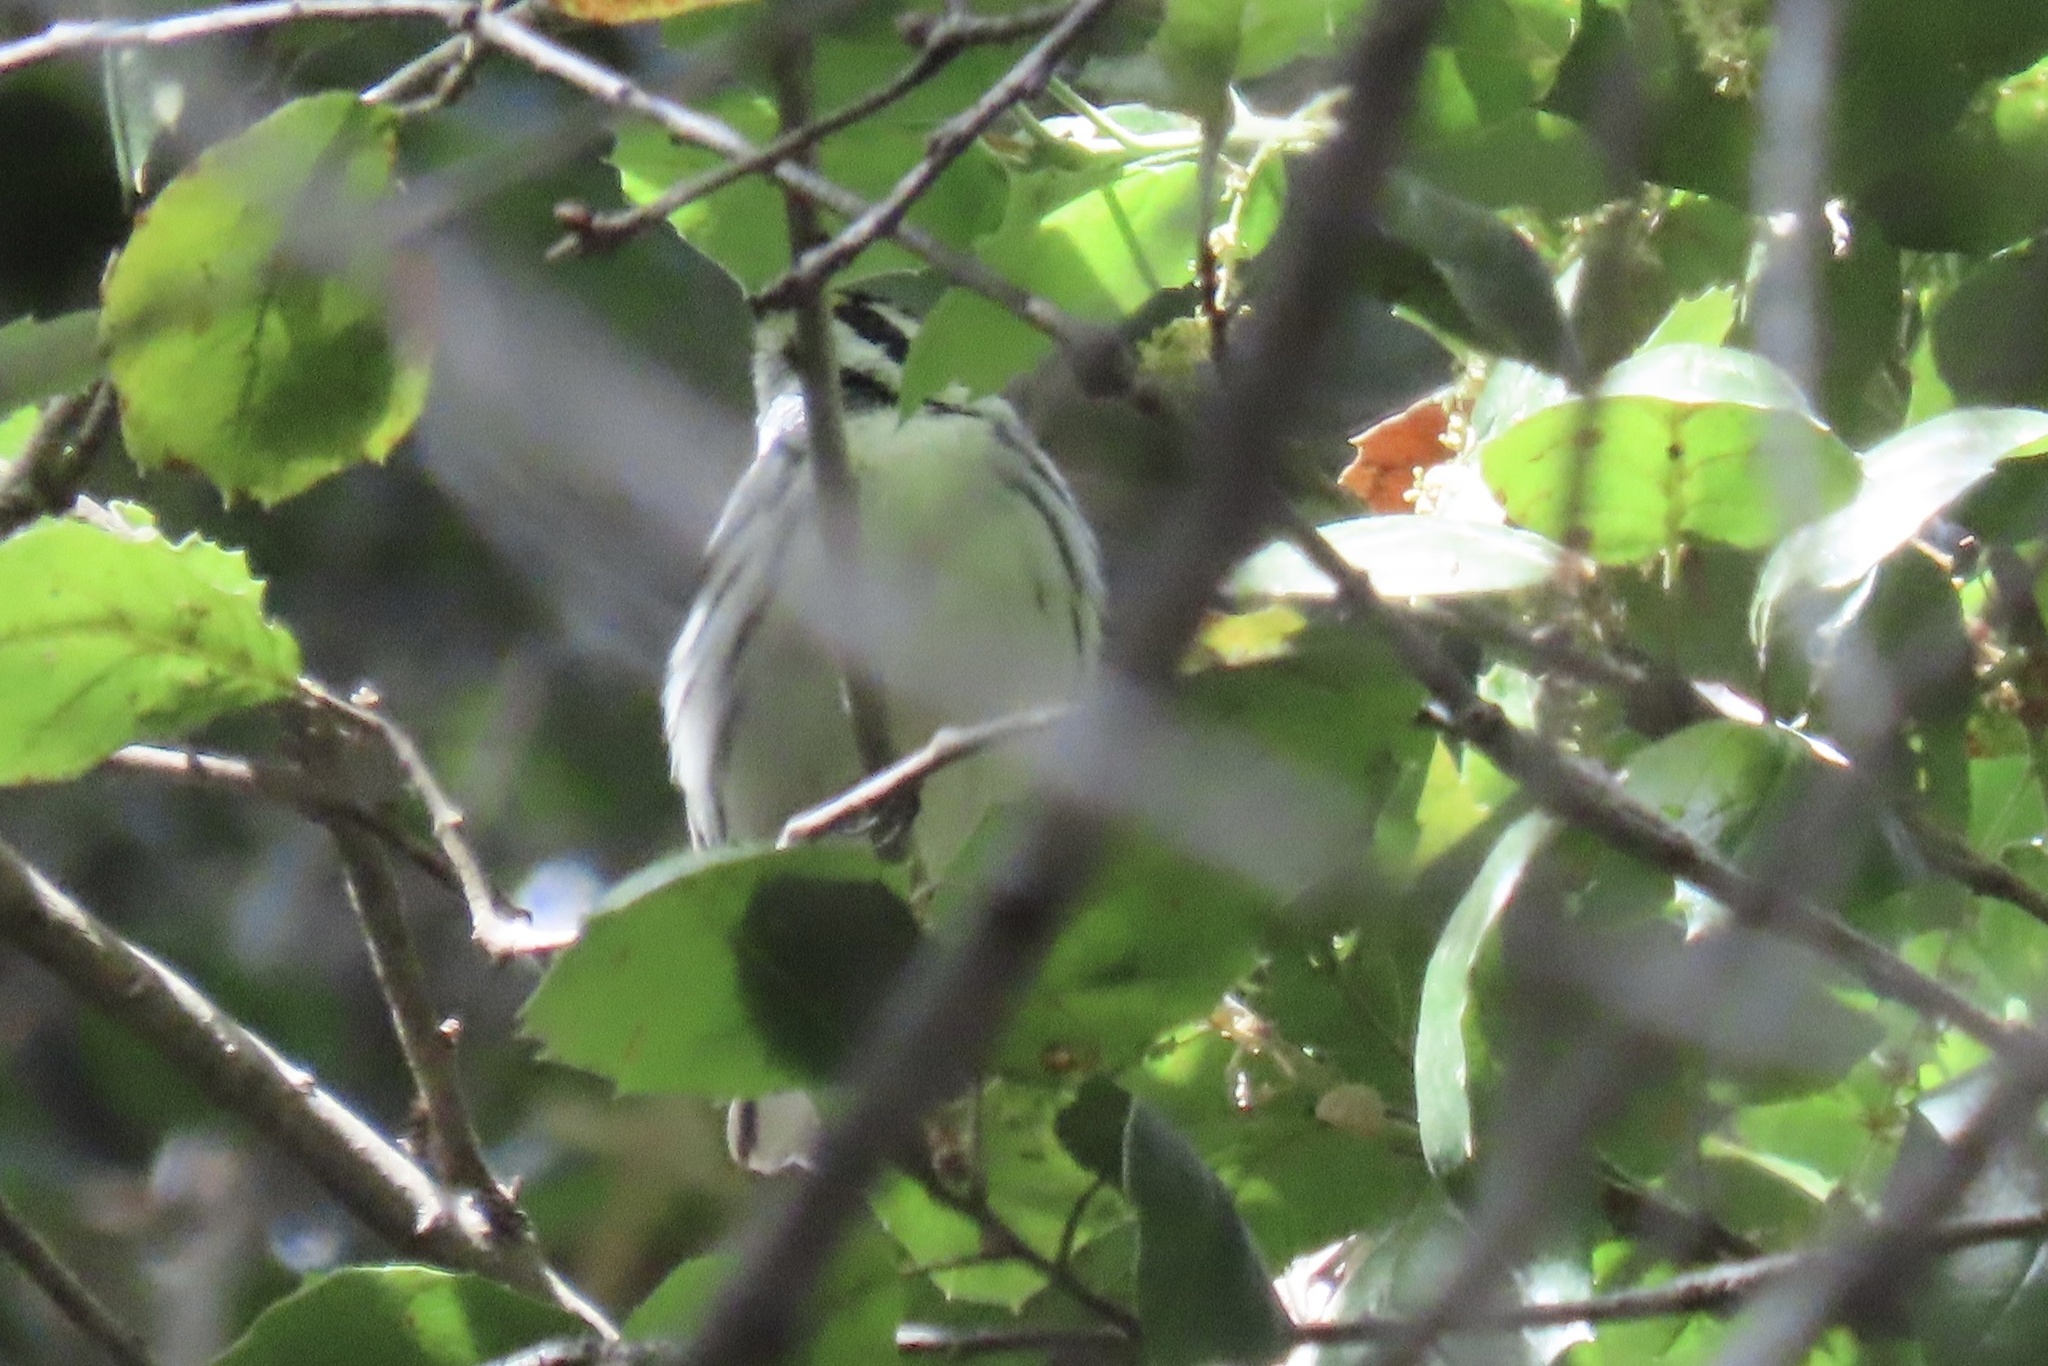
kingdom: Animalia
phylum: Chordata
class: Aves
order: Passeriformes
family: Parulidae
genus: Setophaga
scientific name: Setophaga nigrescens
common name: Black-throated gray warbler
